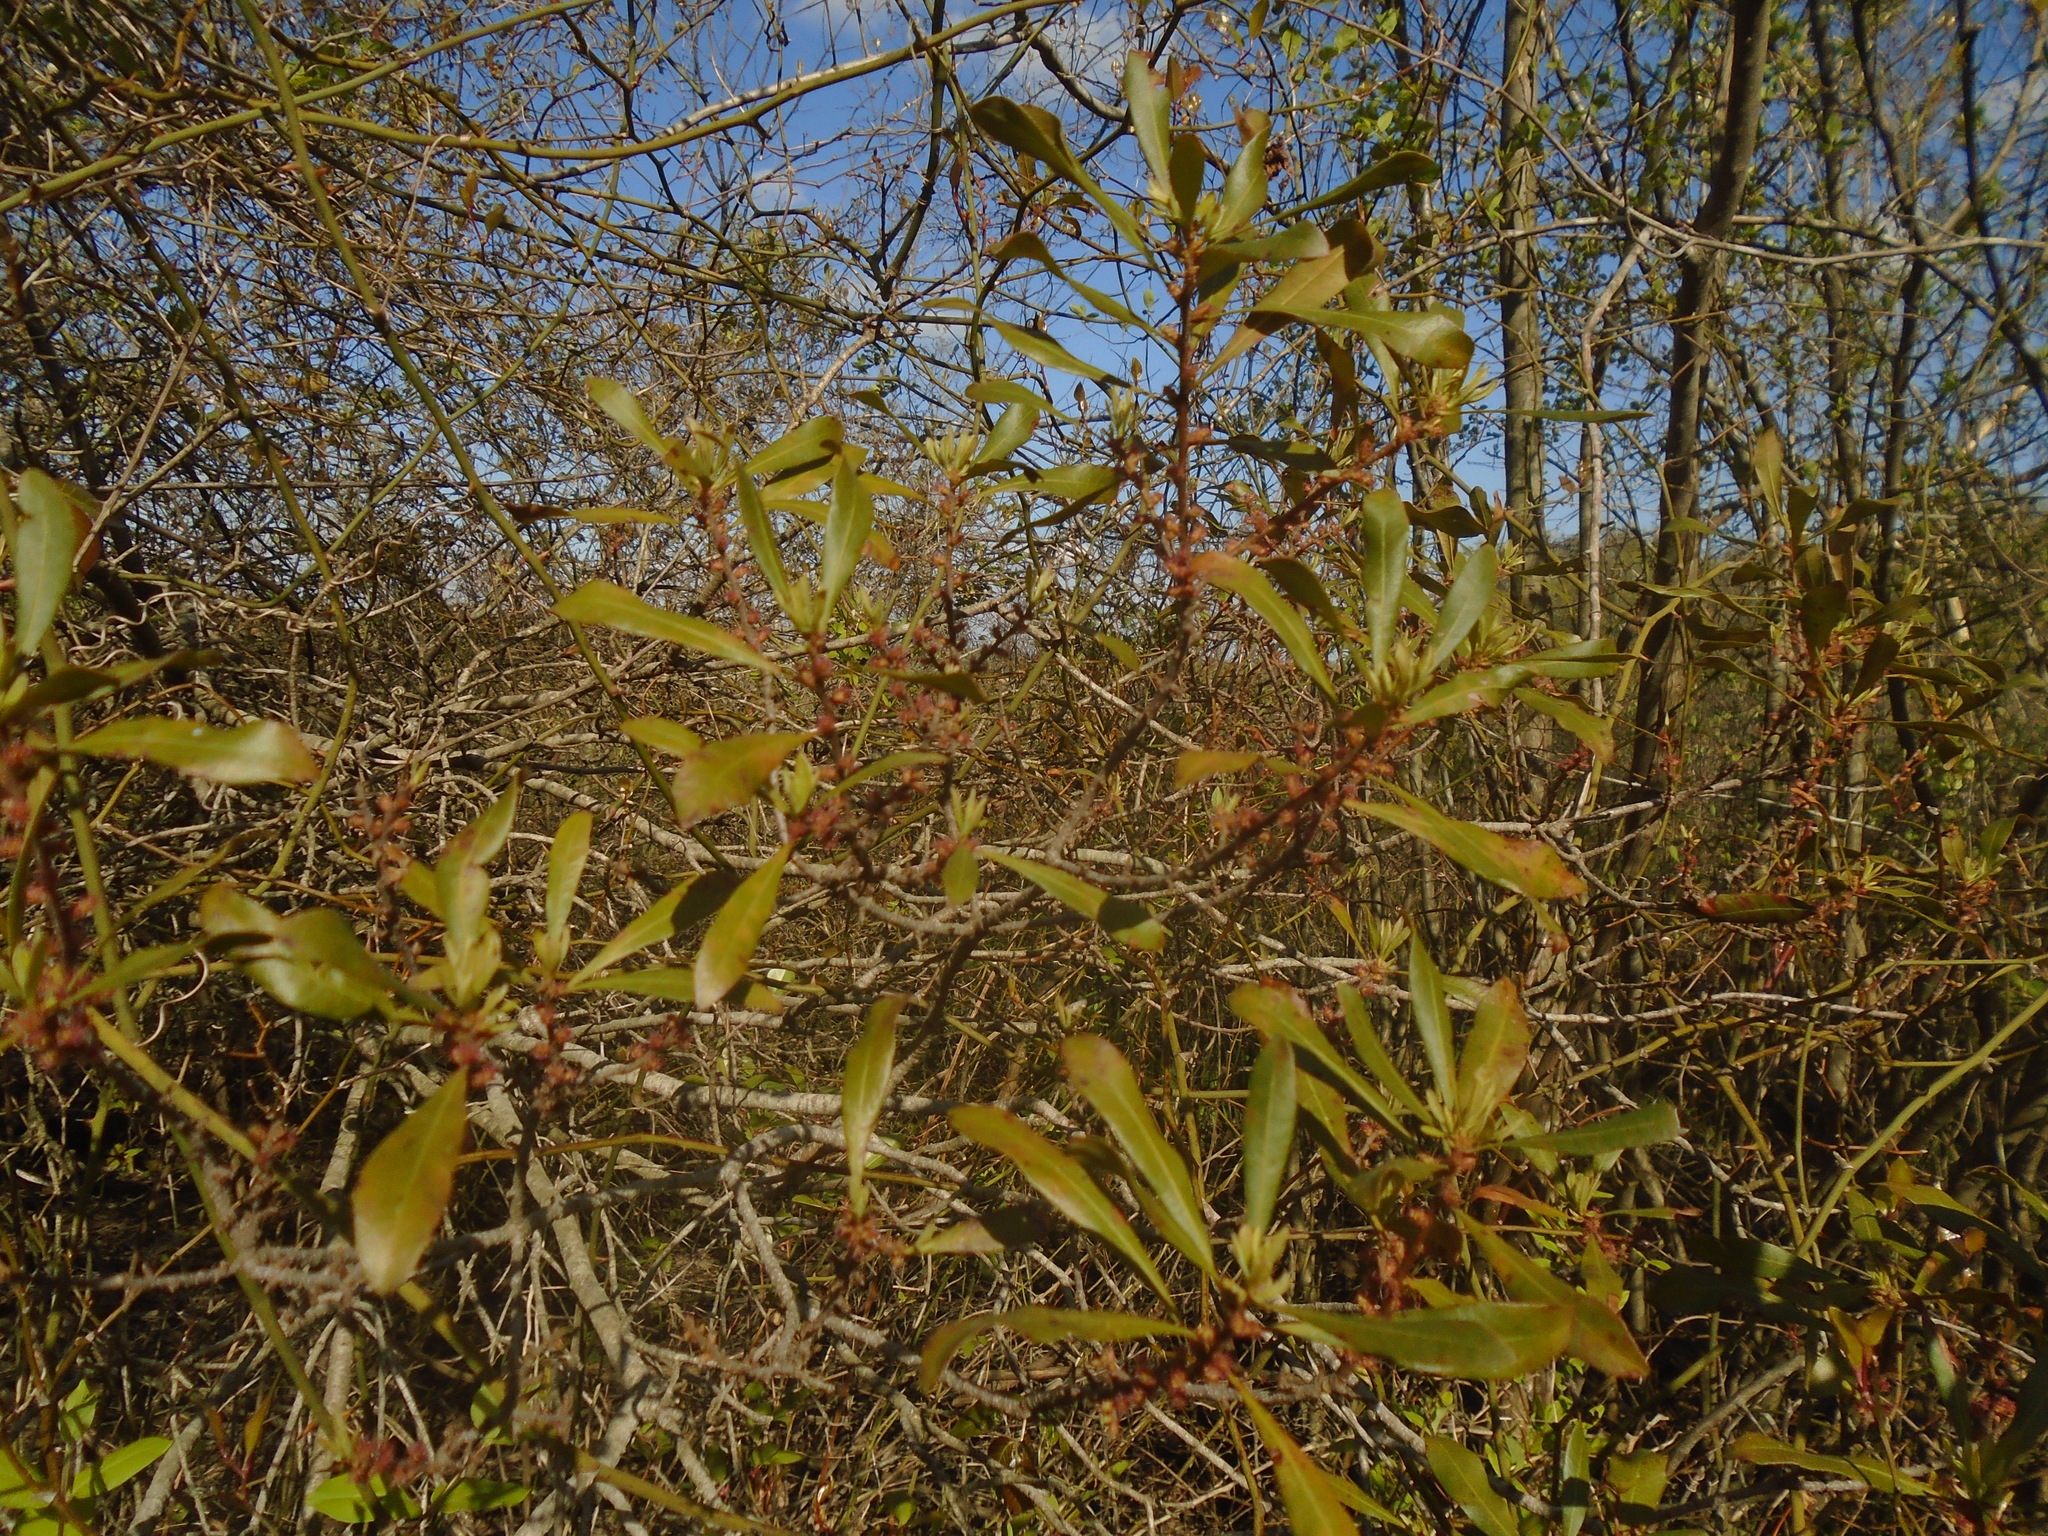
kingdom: Plantae
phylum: Tracheophyta
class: Magnoliopsida
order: Fagales
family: Myricaceae
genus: Morella
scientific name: Morella cerifera
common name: Wax myrtle
